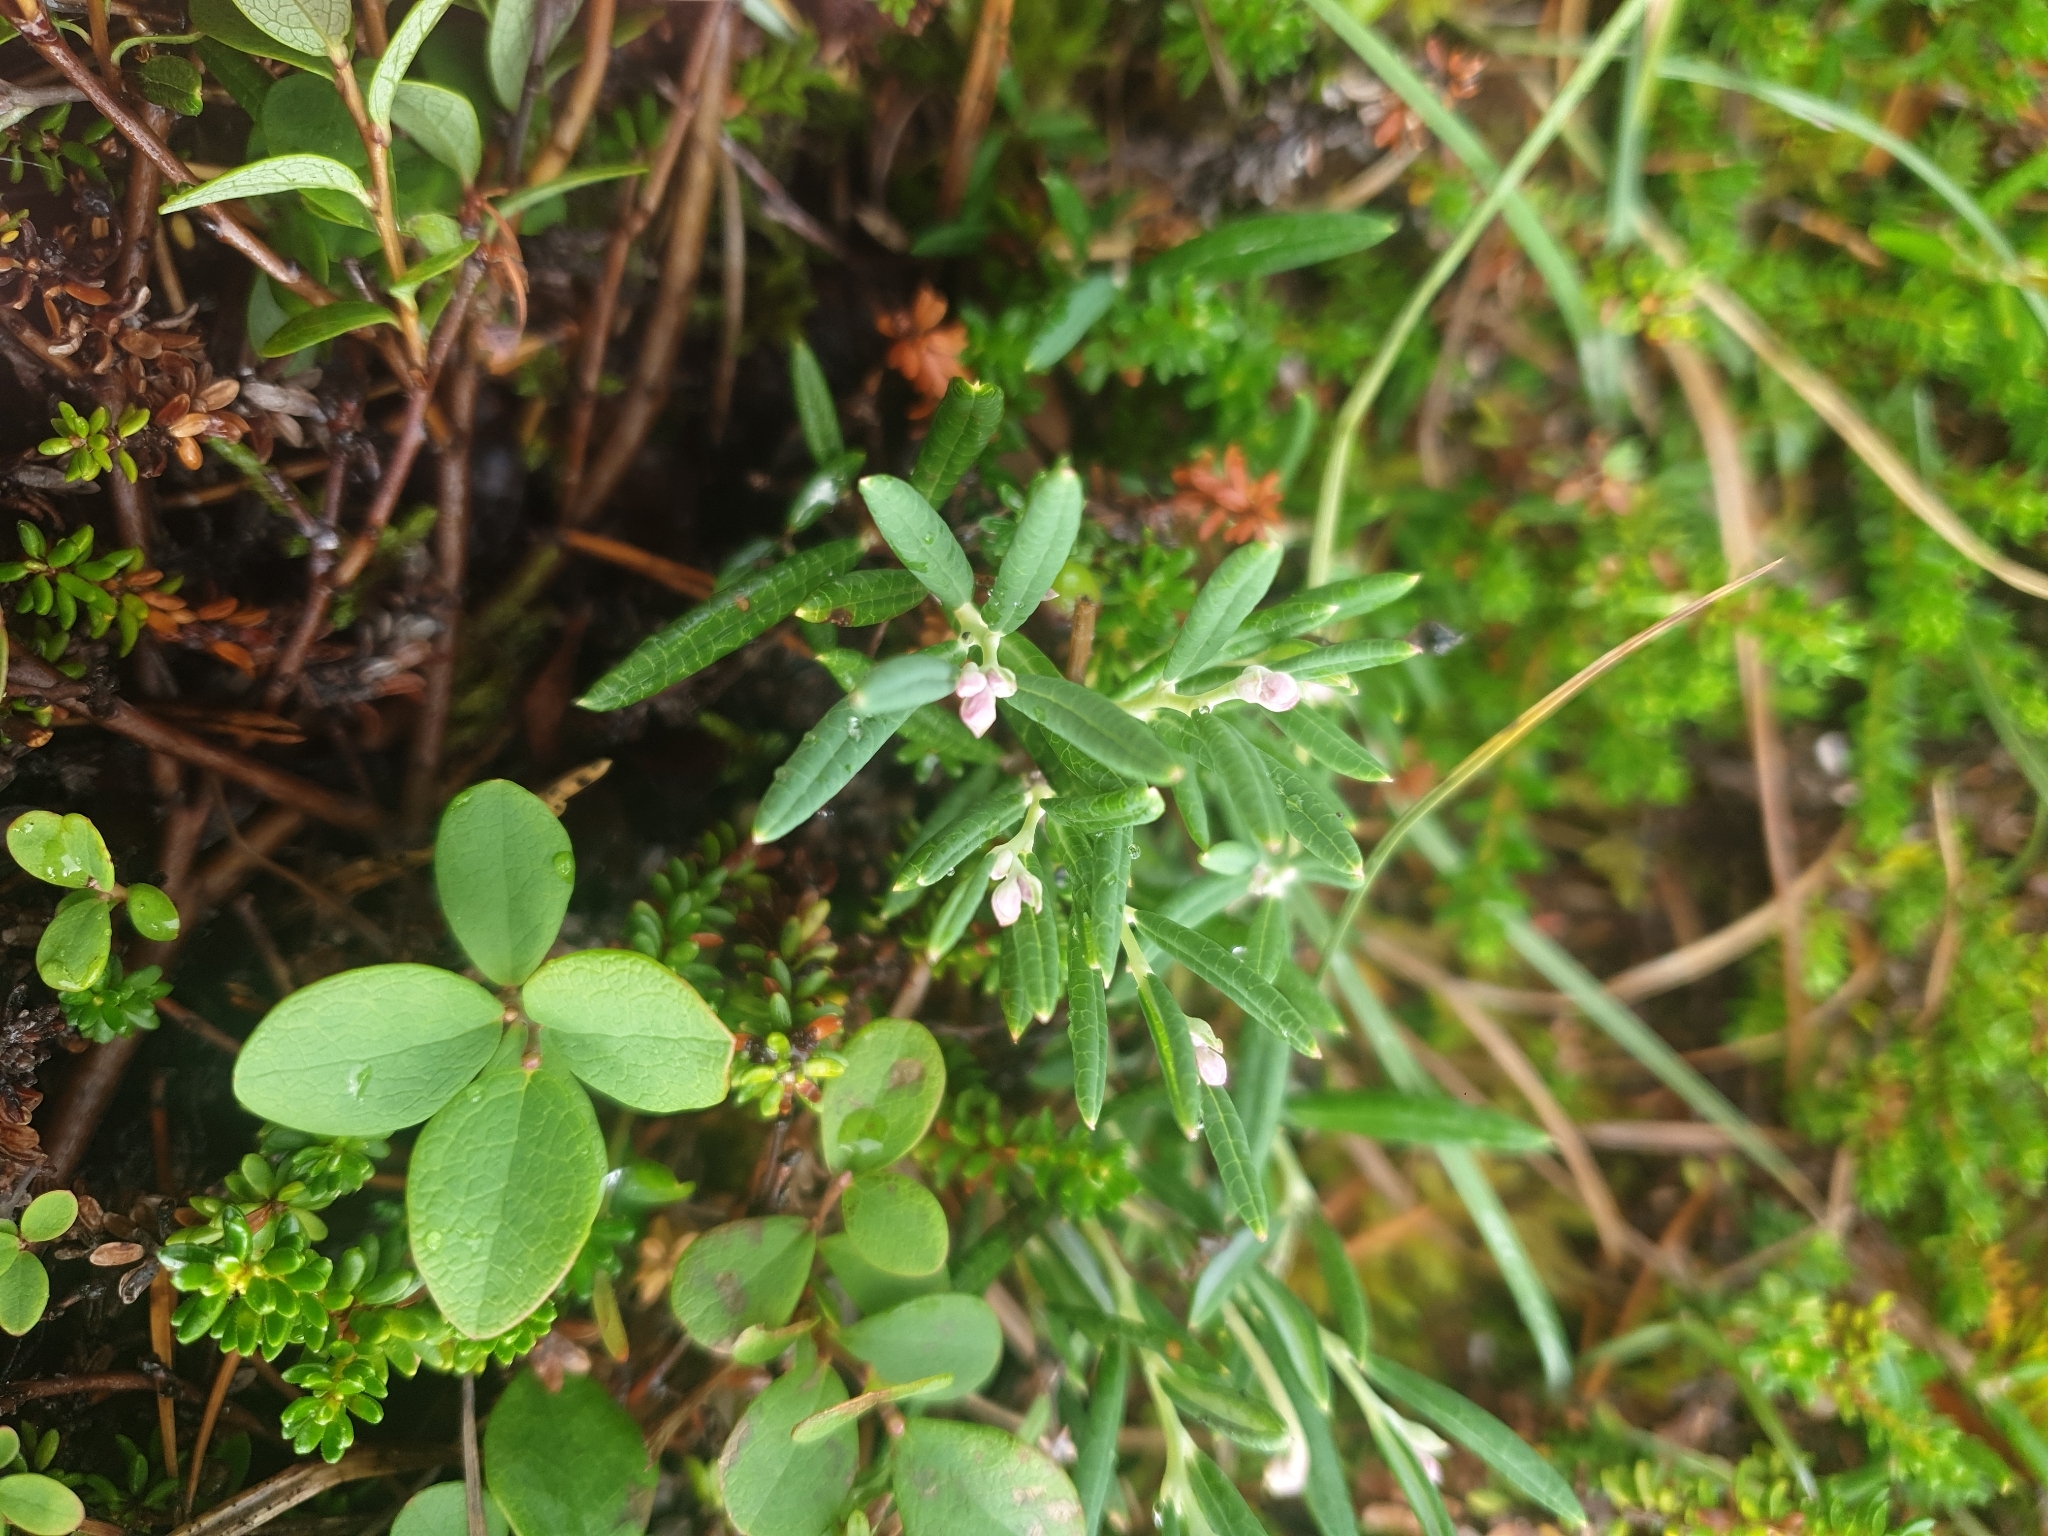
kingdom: Plantae
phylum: Tracheophyta
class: Magnoliopsida
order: Ericales
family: Ericaceae
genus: Andromeda
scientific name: Andromeda polifolia
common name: Bog-rosemary
